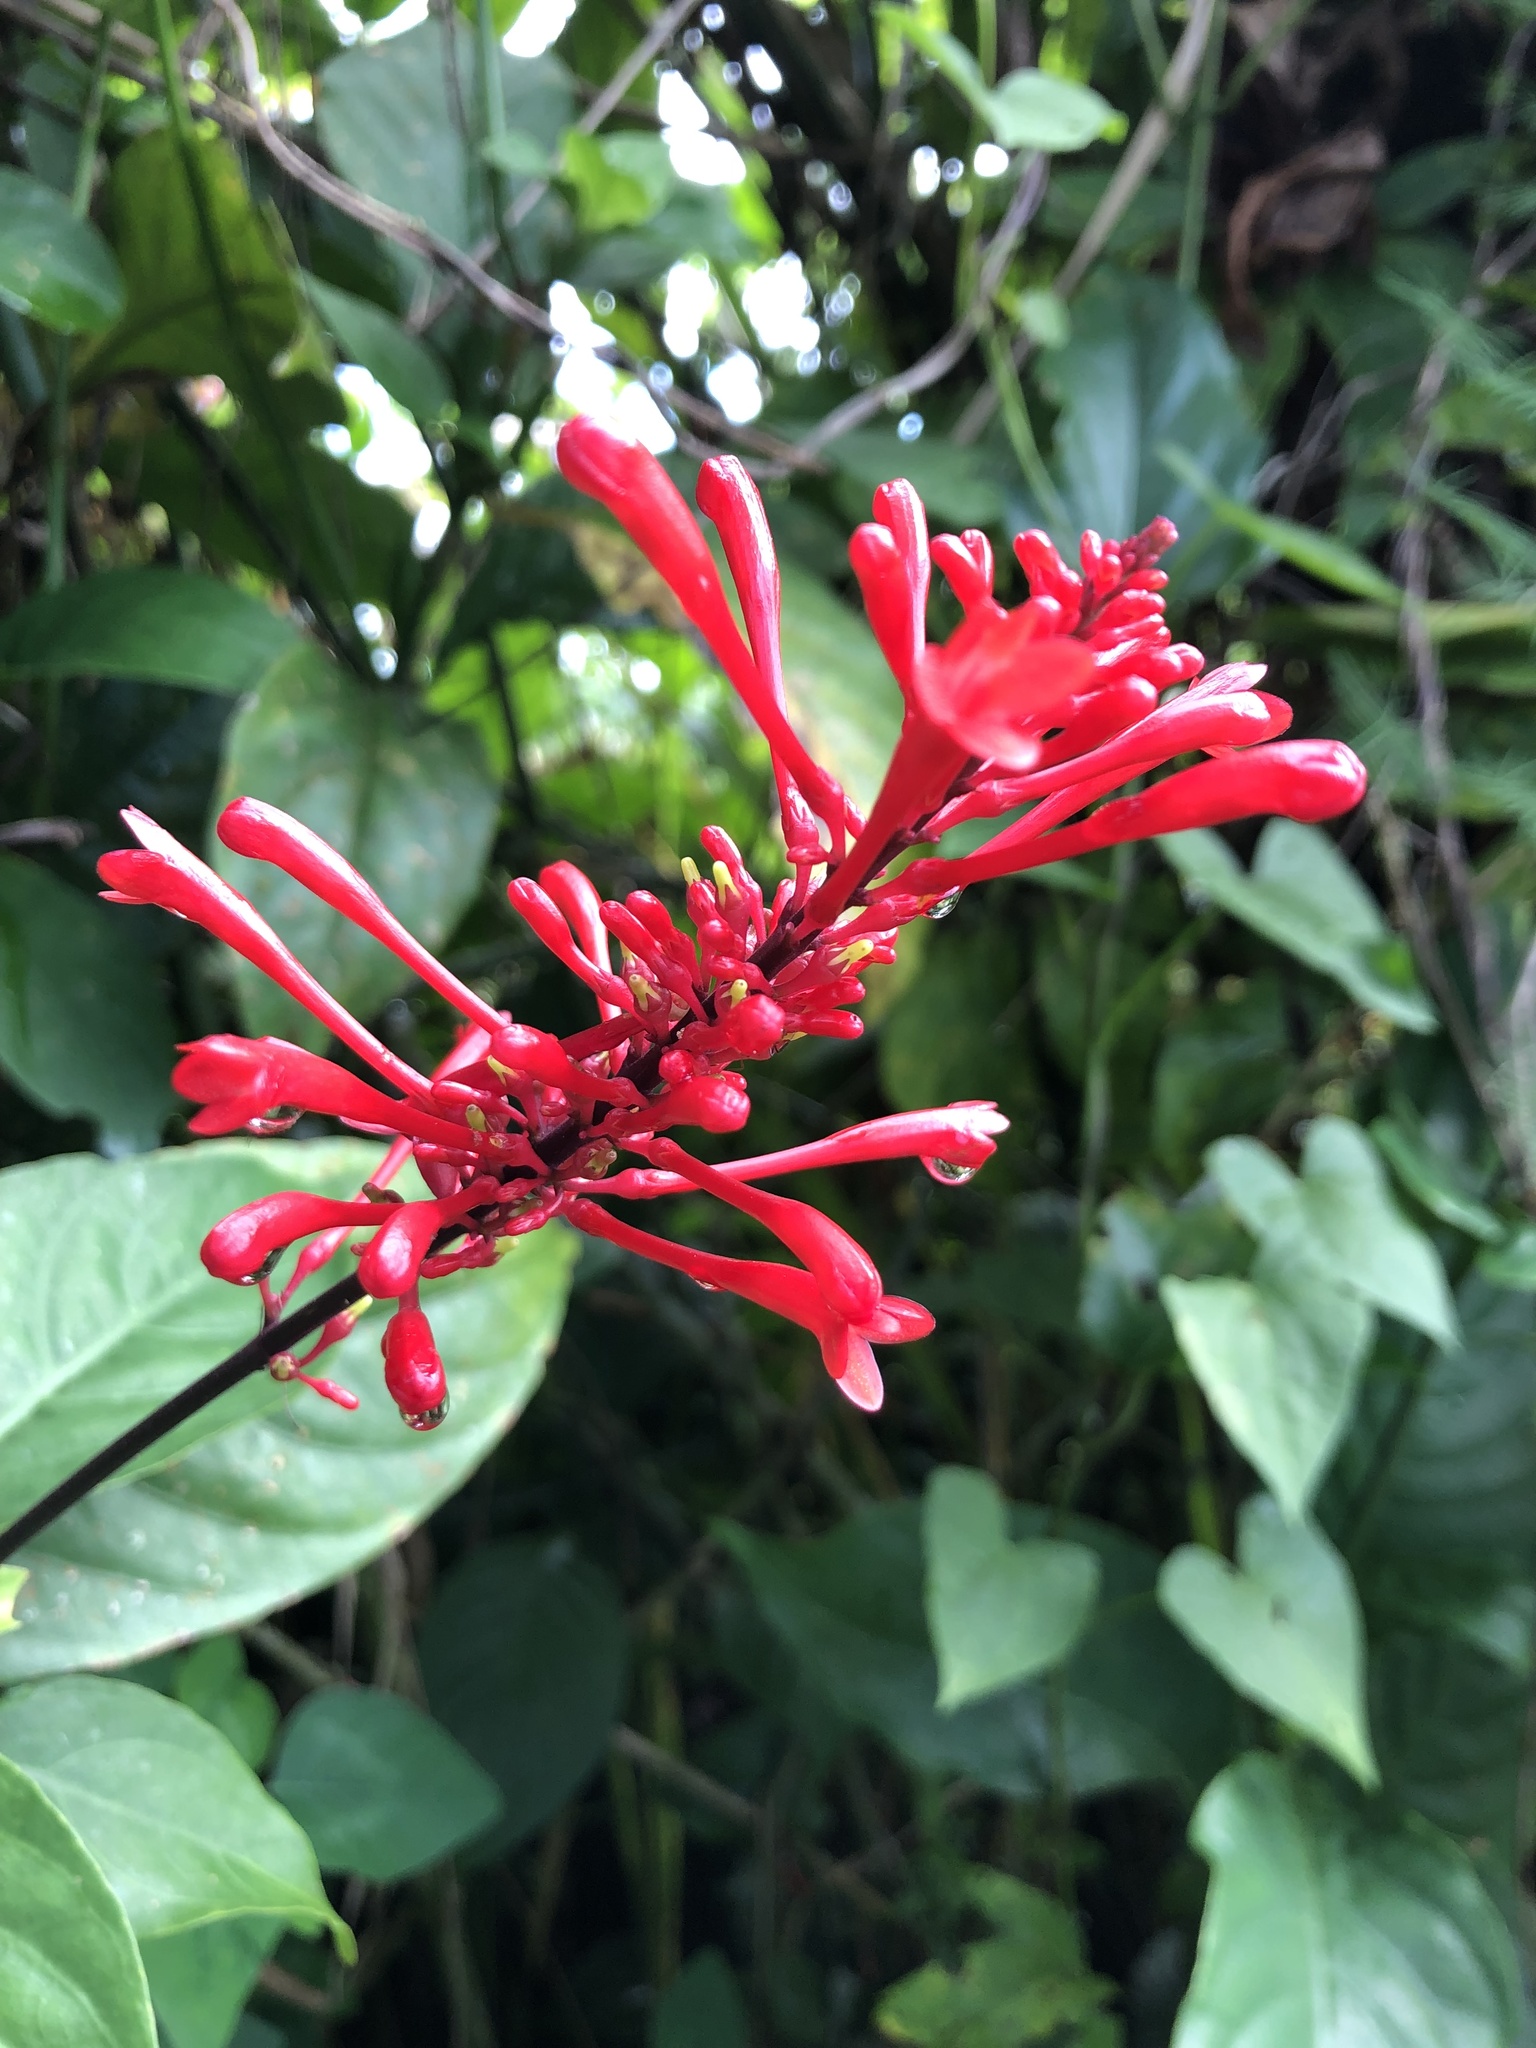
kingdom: Plantae
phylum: Tracheophyta
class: Magnoliopsida
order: Lamiales
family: Acanthaceae
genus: Odontonema
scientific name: Odontonema tubaeforme
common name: Firespike
